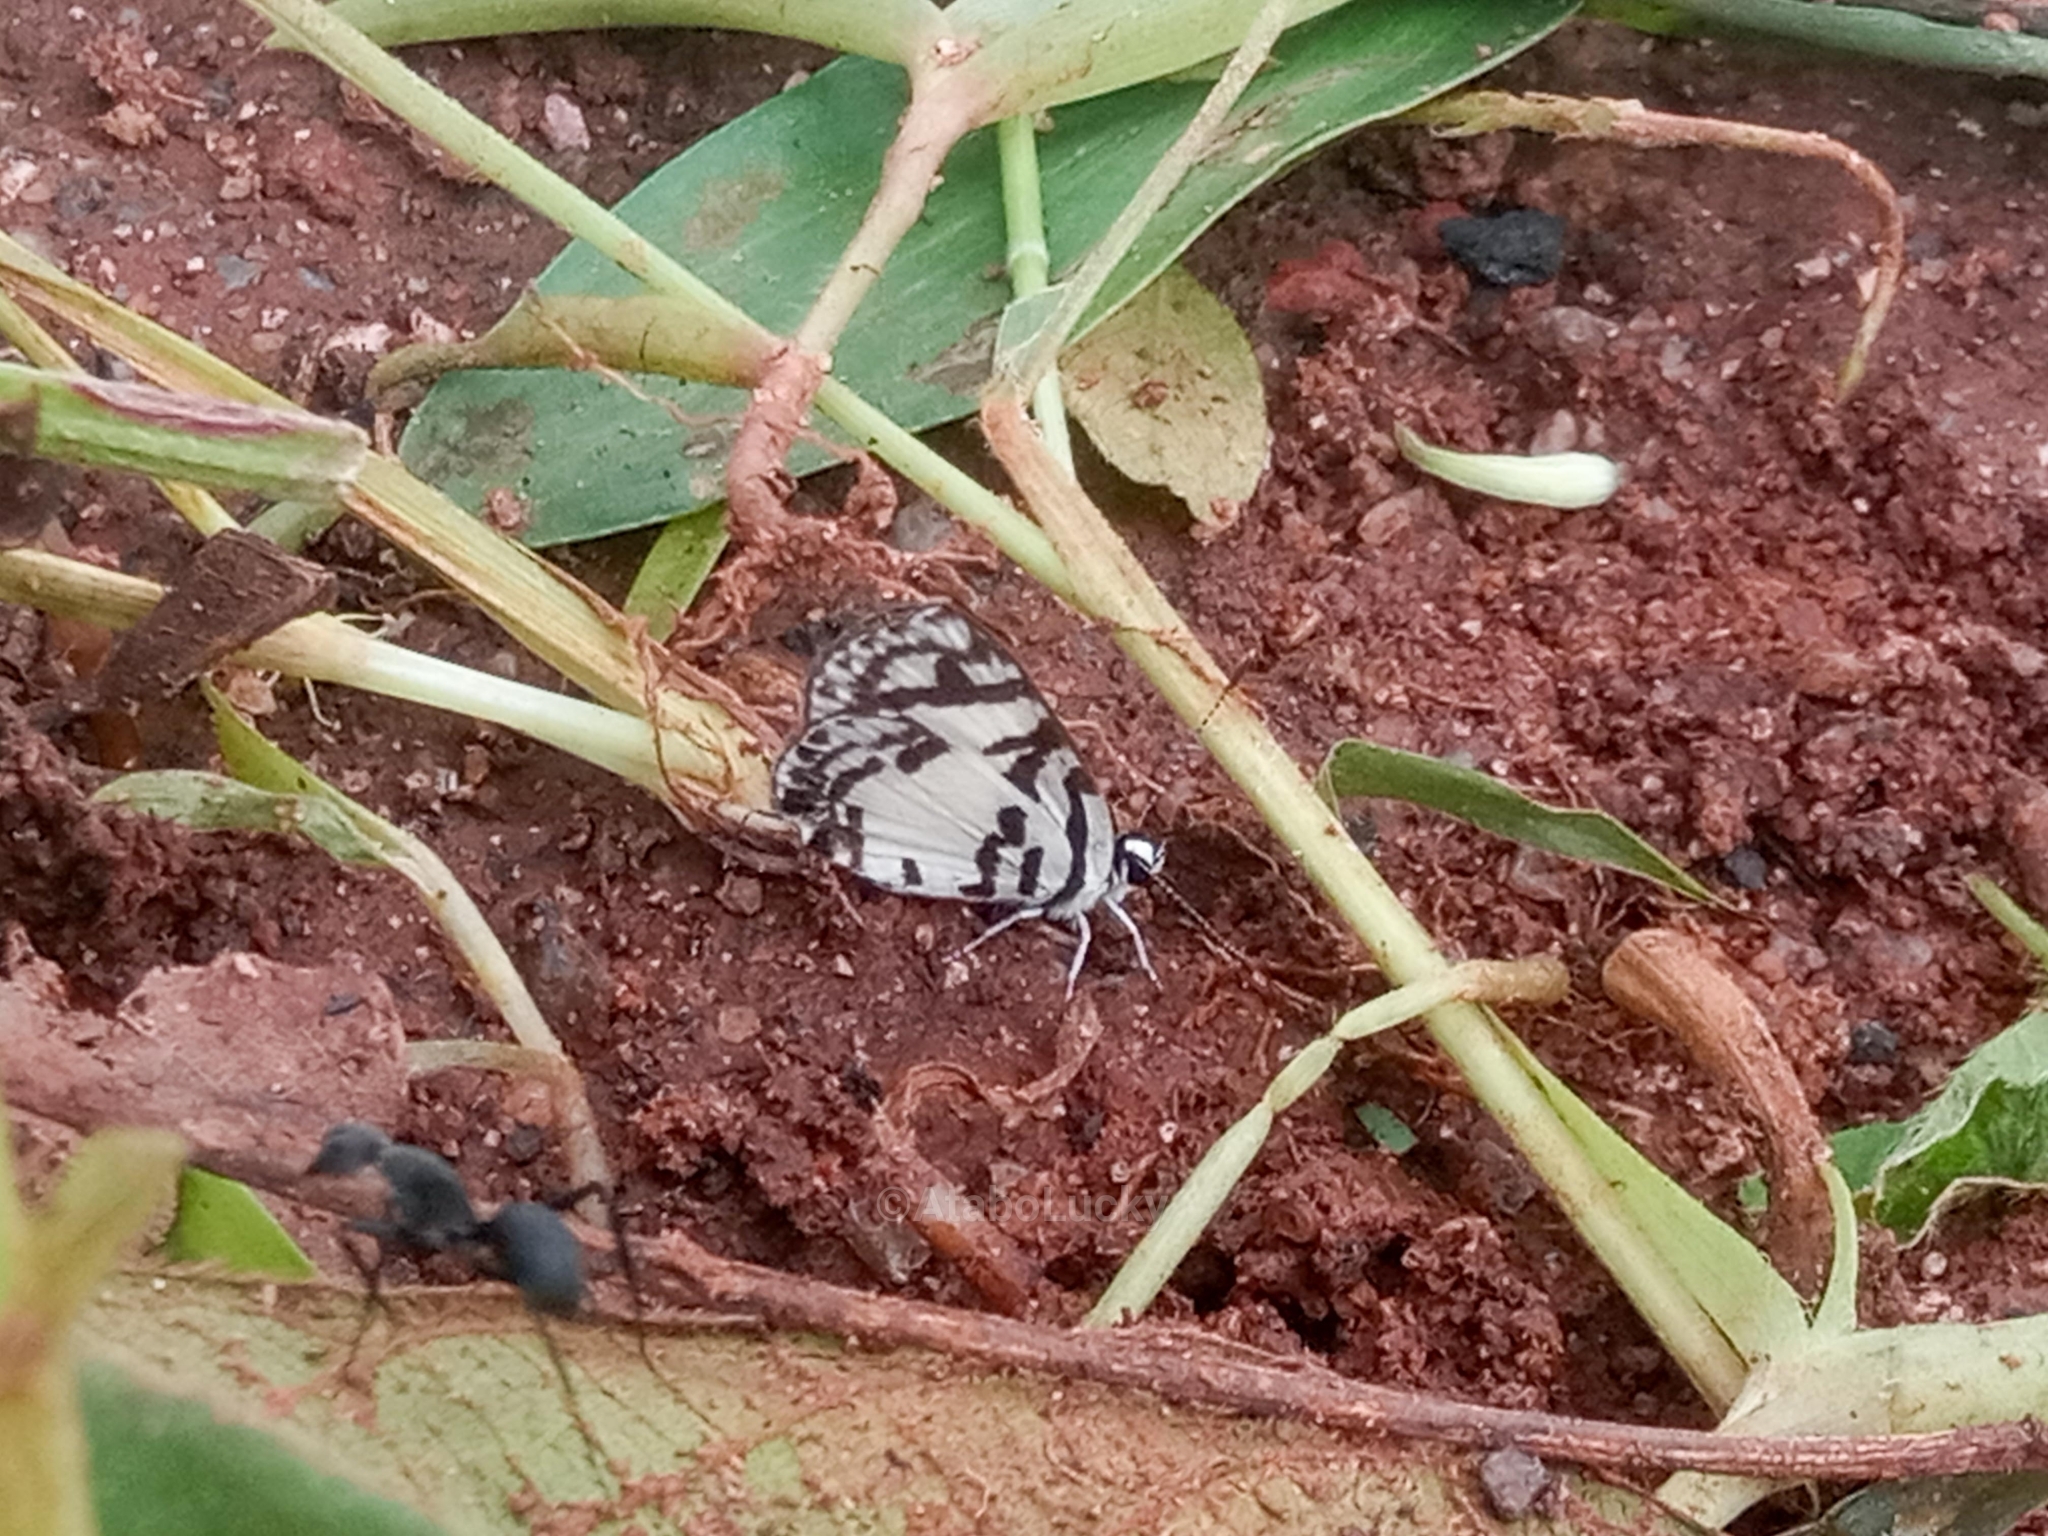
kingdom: Animalia
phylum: Arthropoda
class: Insecta
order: Lepidoptera
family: Lycaenidae
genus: Tuxentius
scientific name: Tuxentius
